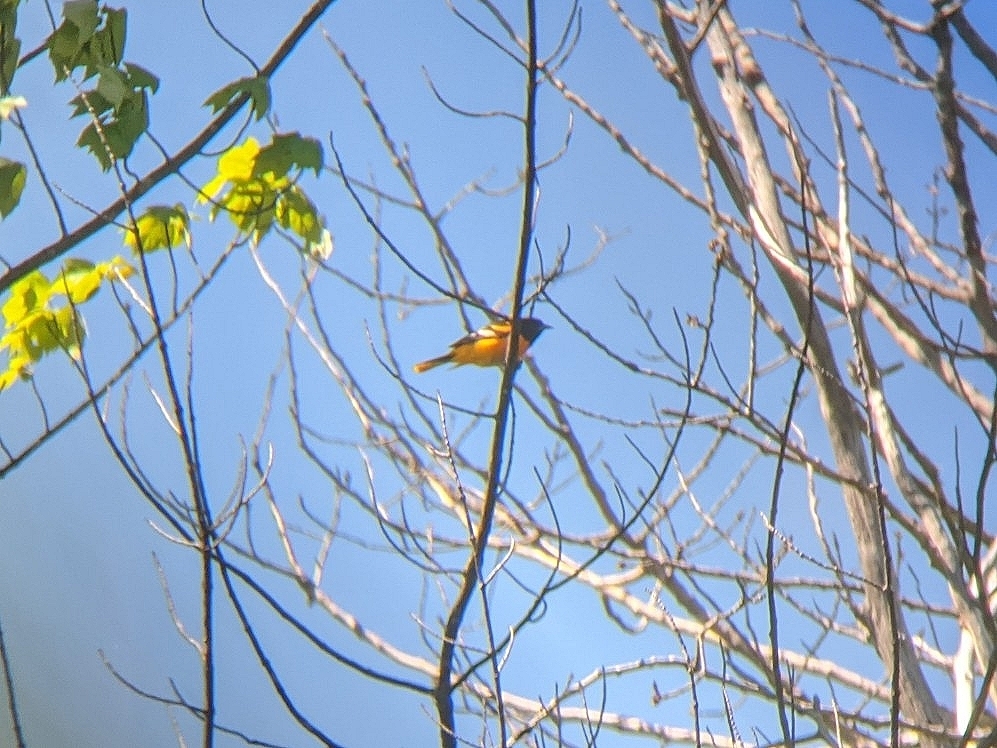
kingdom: Animalia
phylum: Chordata
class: Aves
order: Passeriformes
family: Icteridae
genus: Icterus
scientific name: Icterus galbula
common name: Baltimore oriole
